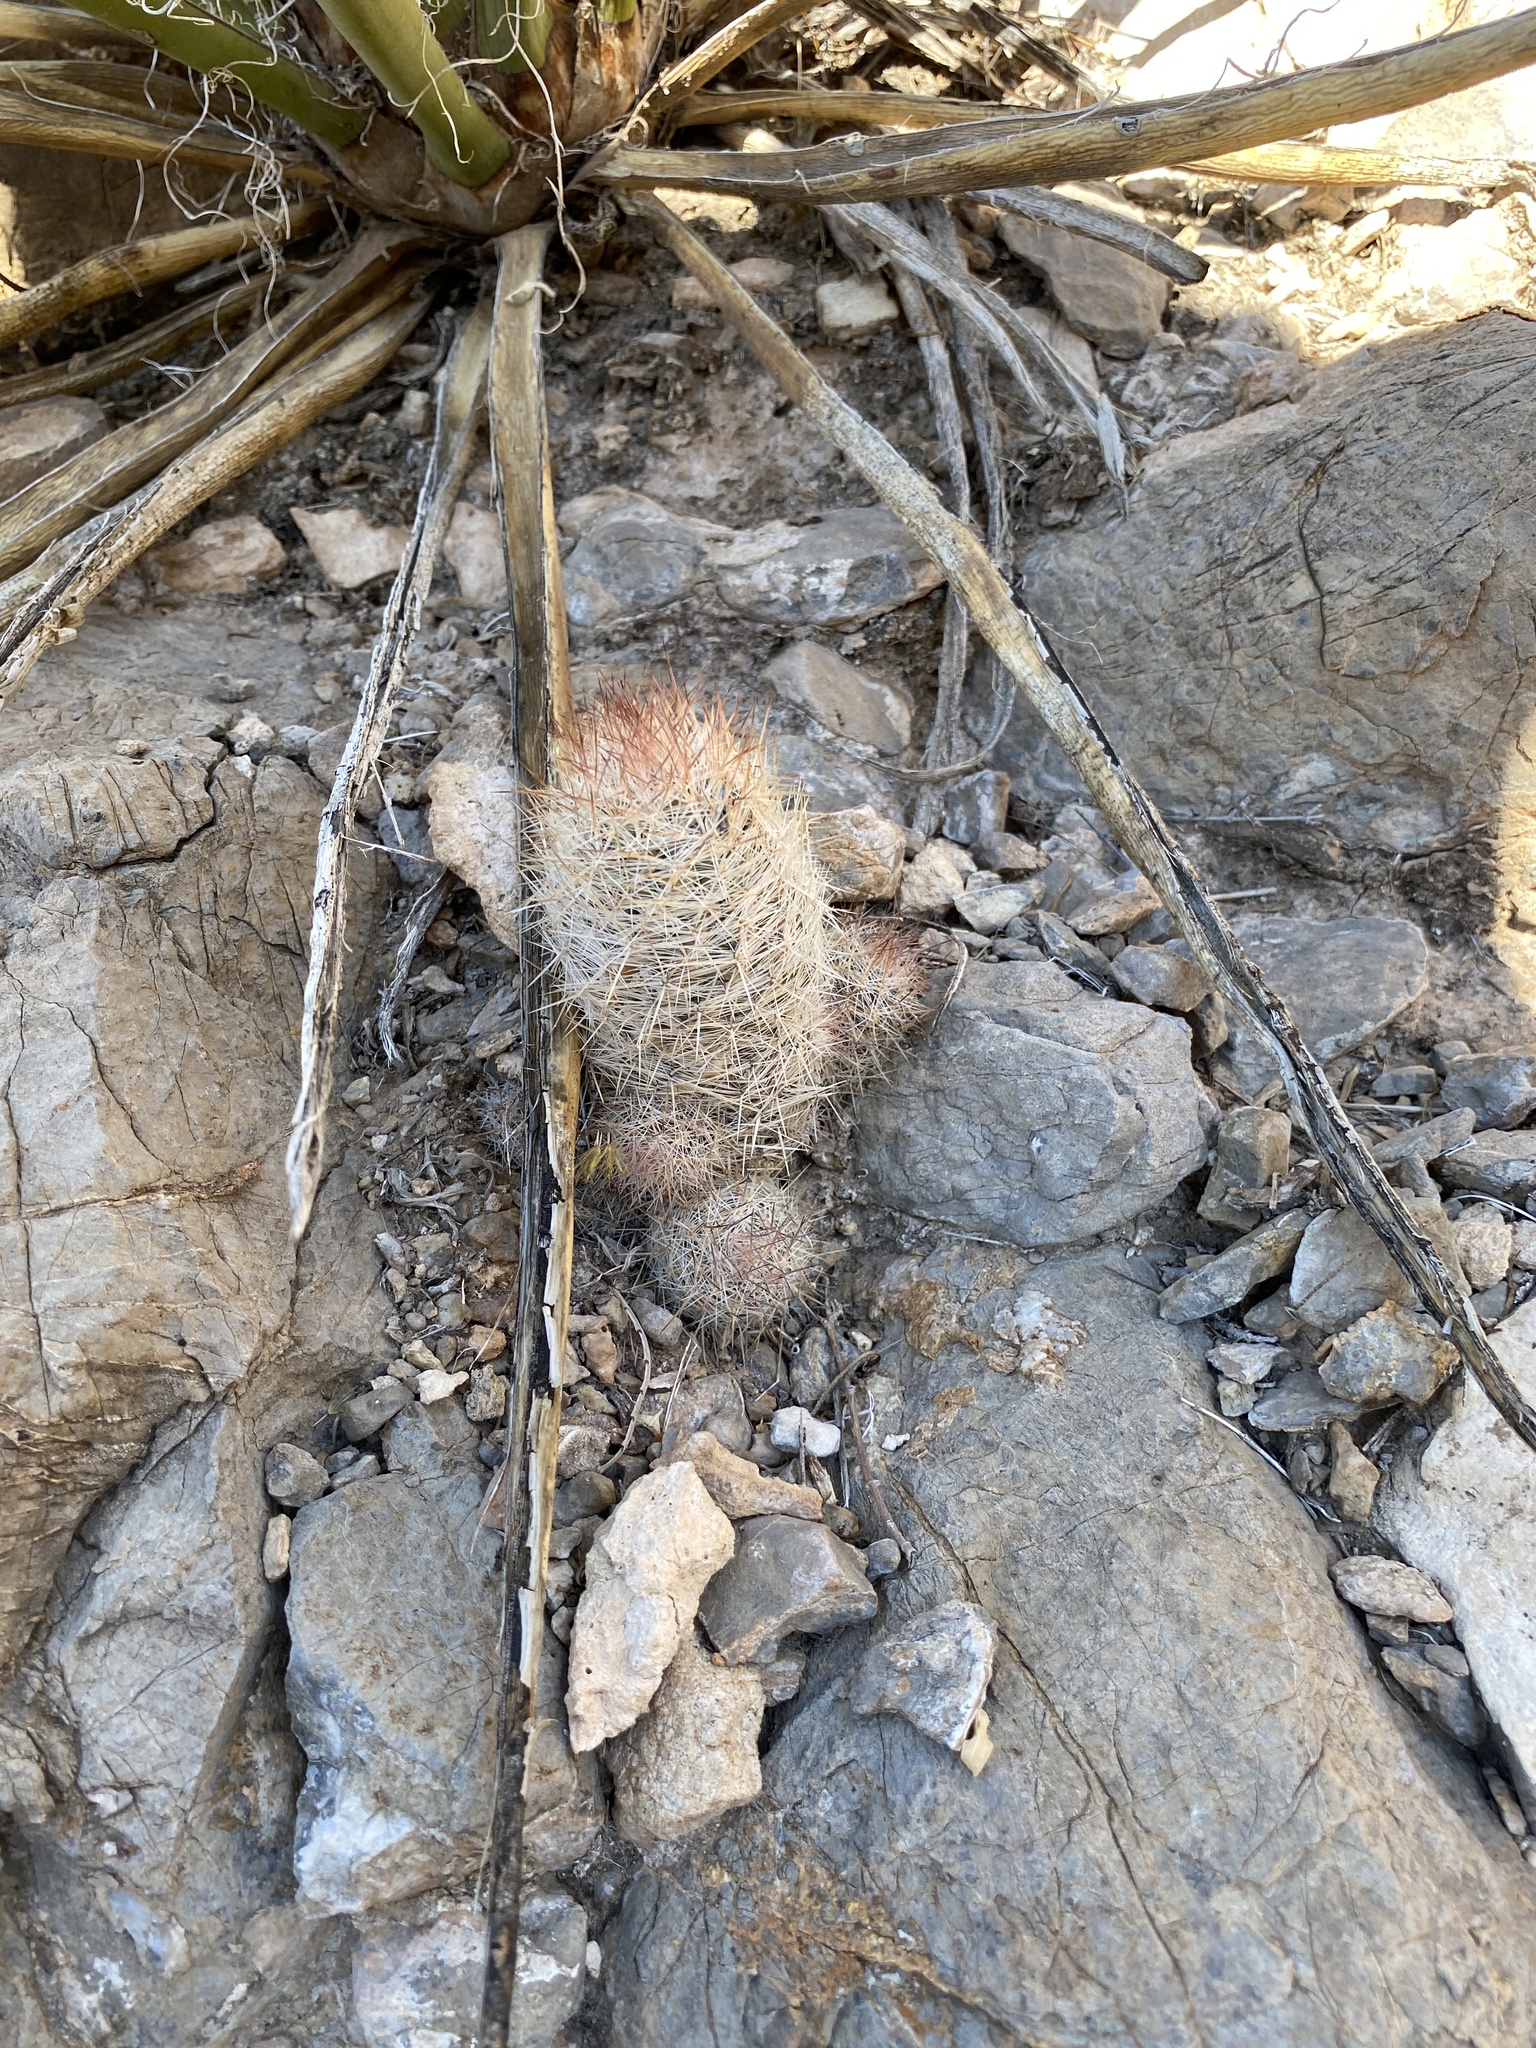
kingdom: Plantae
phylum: Tracheophyta
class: Magnoliopsida
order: Caryophyllales
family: Cactaceae
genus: Pelecyphora
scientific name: Pelecyphora tuberculosa
